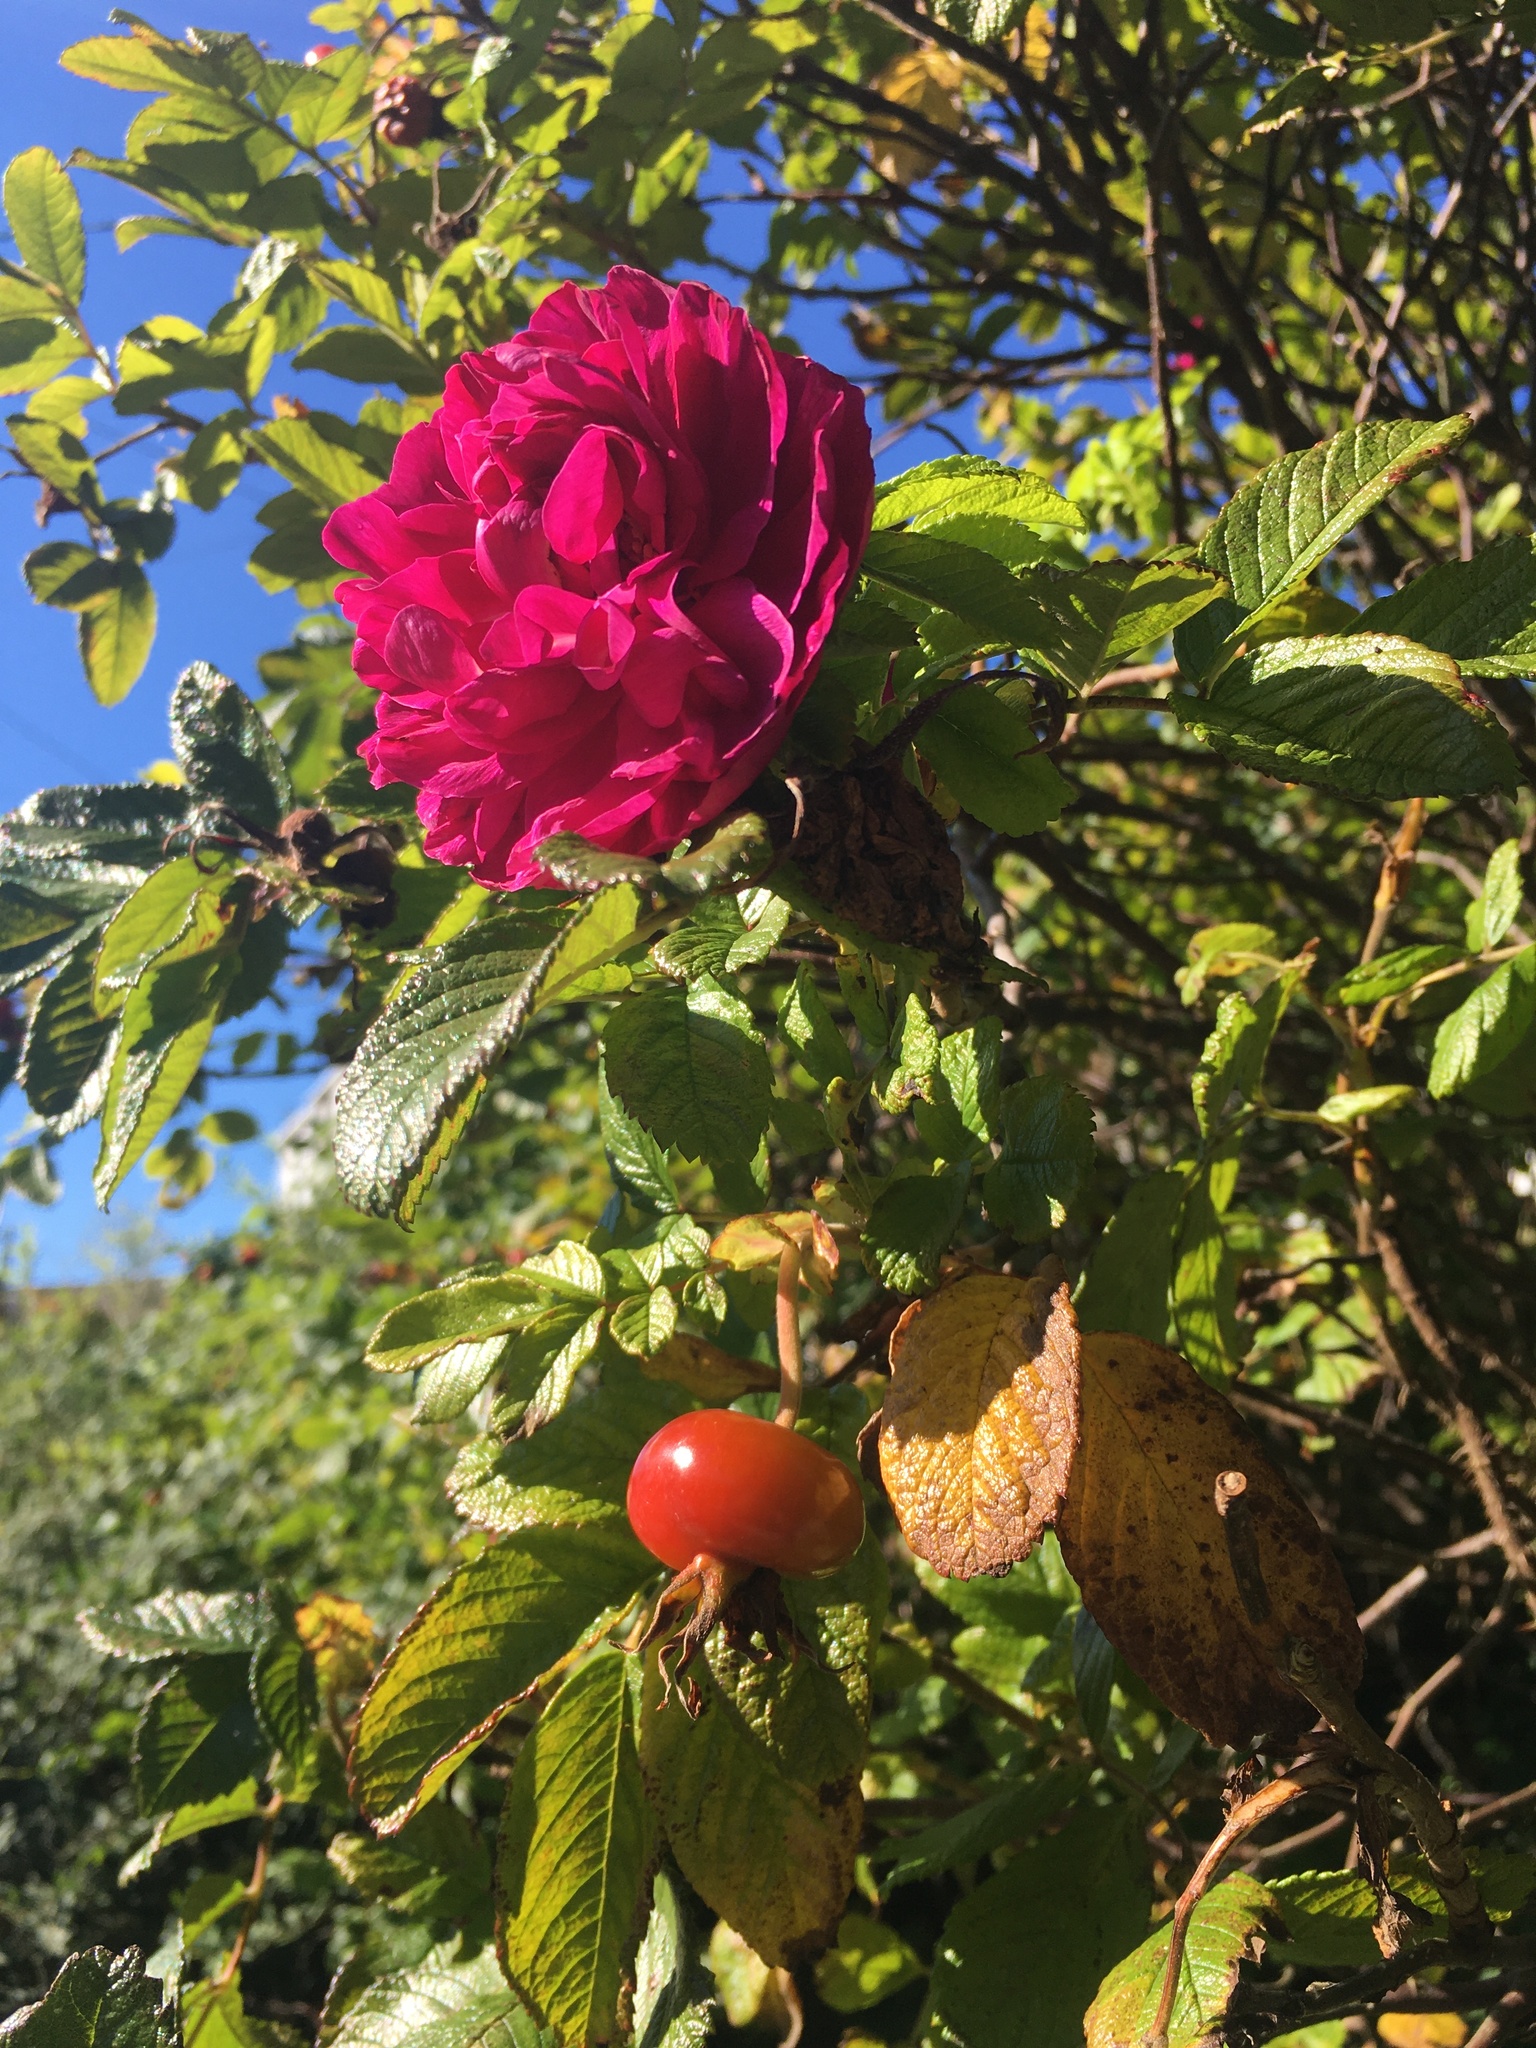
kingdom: Plantae
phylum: Tracheophyta
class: Magnoliopsida
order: Rosales
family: Rosaceae
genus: Rosa
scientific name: Rosa rugosa
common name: Japanese rose
